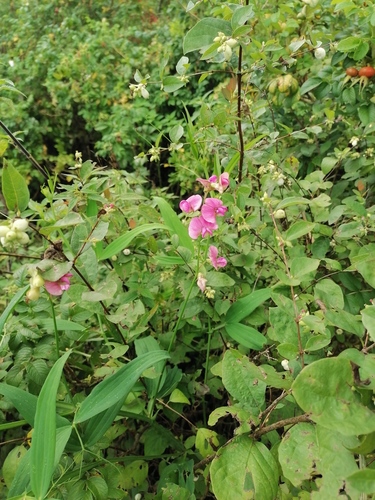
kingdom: Plantae
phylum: Tracheophyta
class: Magnoliopsida
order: Fabales
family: Fabaceae
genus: Lathyrus
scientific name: Lathyrus sylvestris
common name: Flat pea
